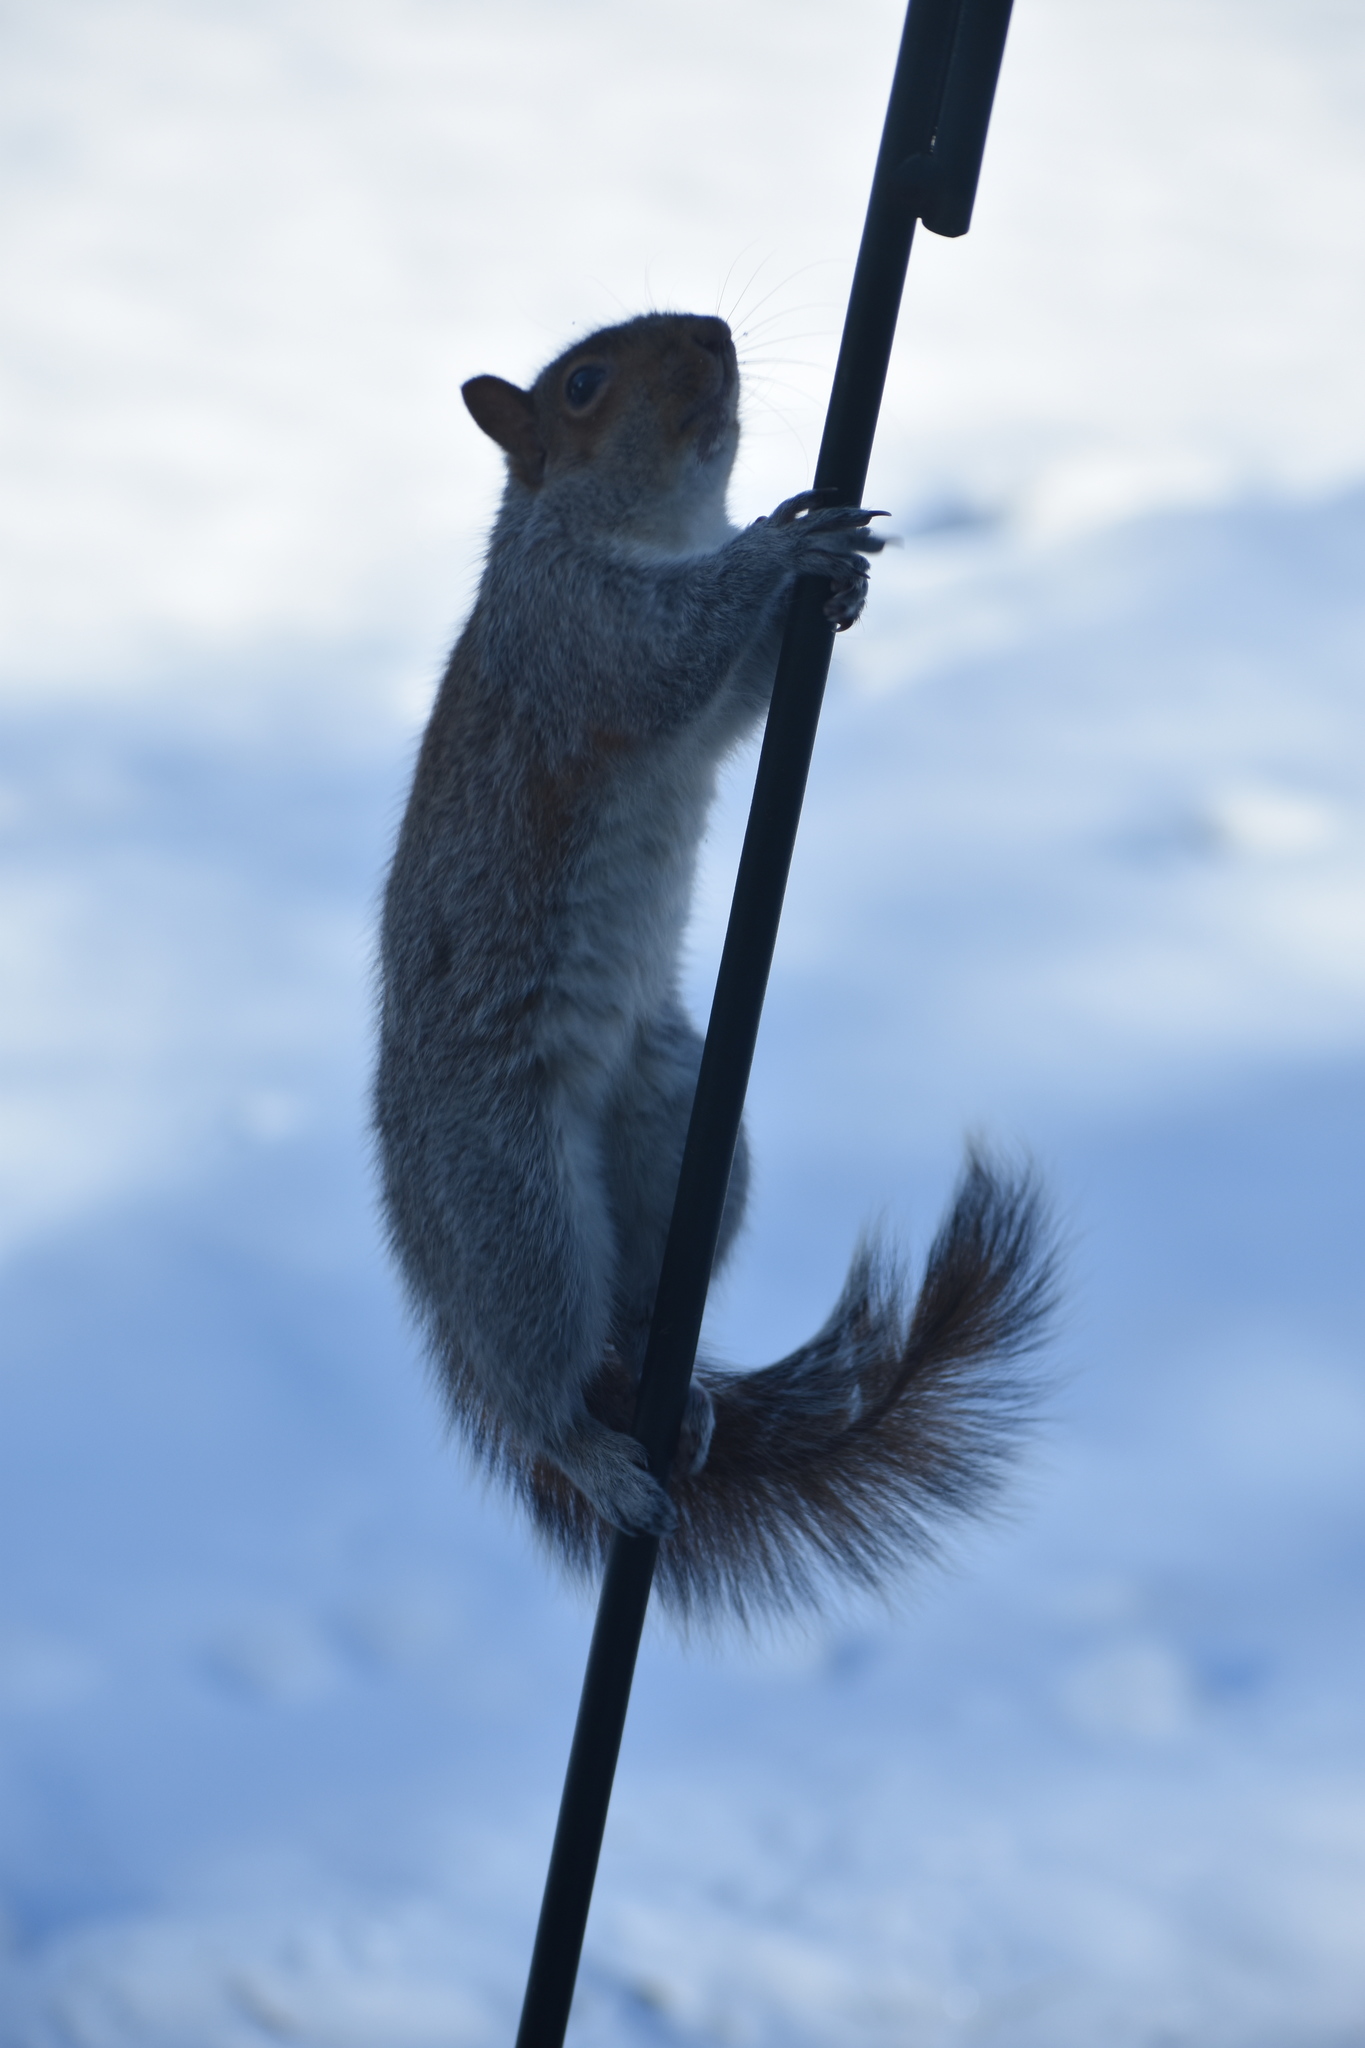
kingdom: Animalia
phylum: Chordata
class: Mammalia
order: Rodentia
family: Sciuridae
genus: Sciurus
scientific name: Sciurus carolinensis
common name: Eastern gray squirrel
